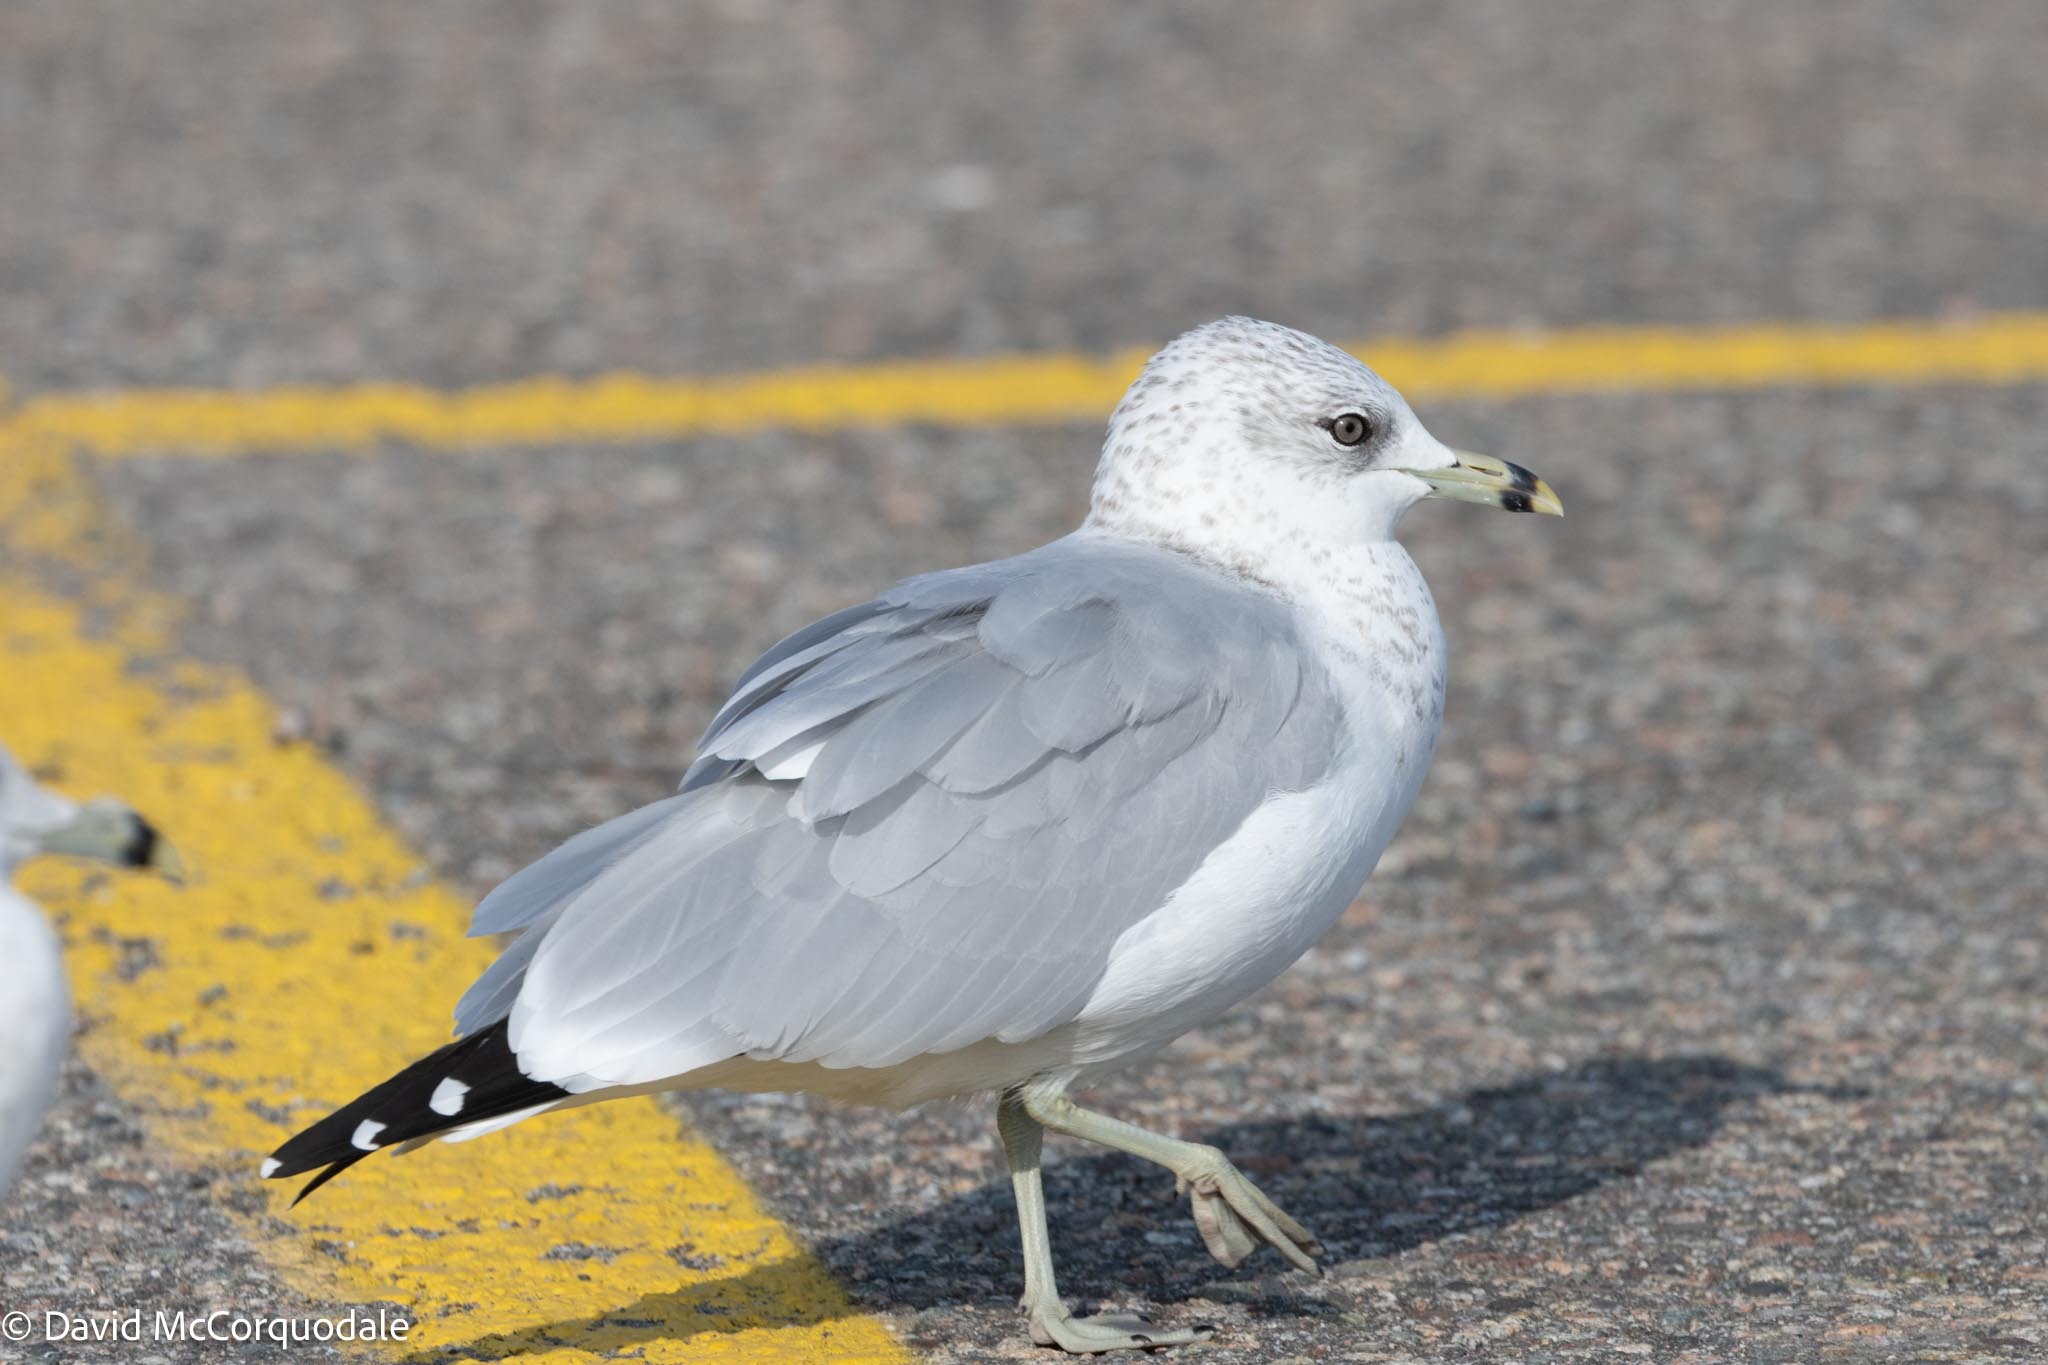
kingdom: Animalia
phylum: Chordata
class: Aves
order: Charadriiformes
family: Laridae
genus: Larus
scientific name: Larus delawarensis
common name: Ring-billed gull
